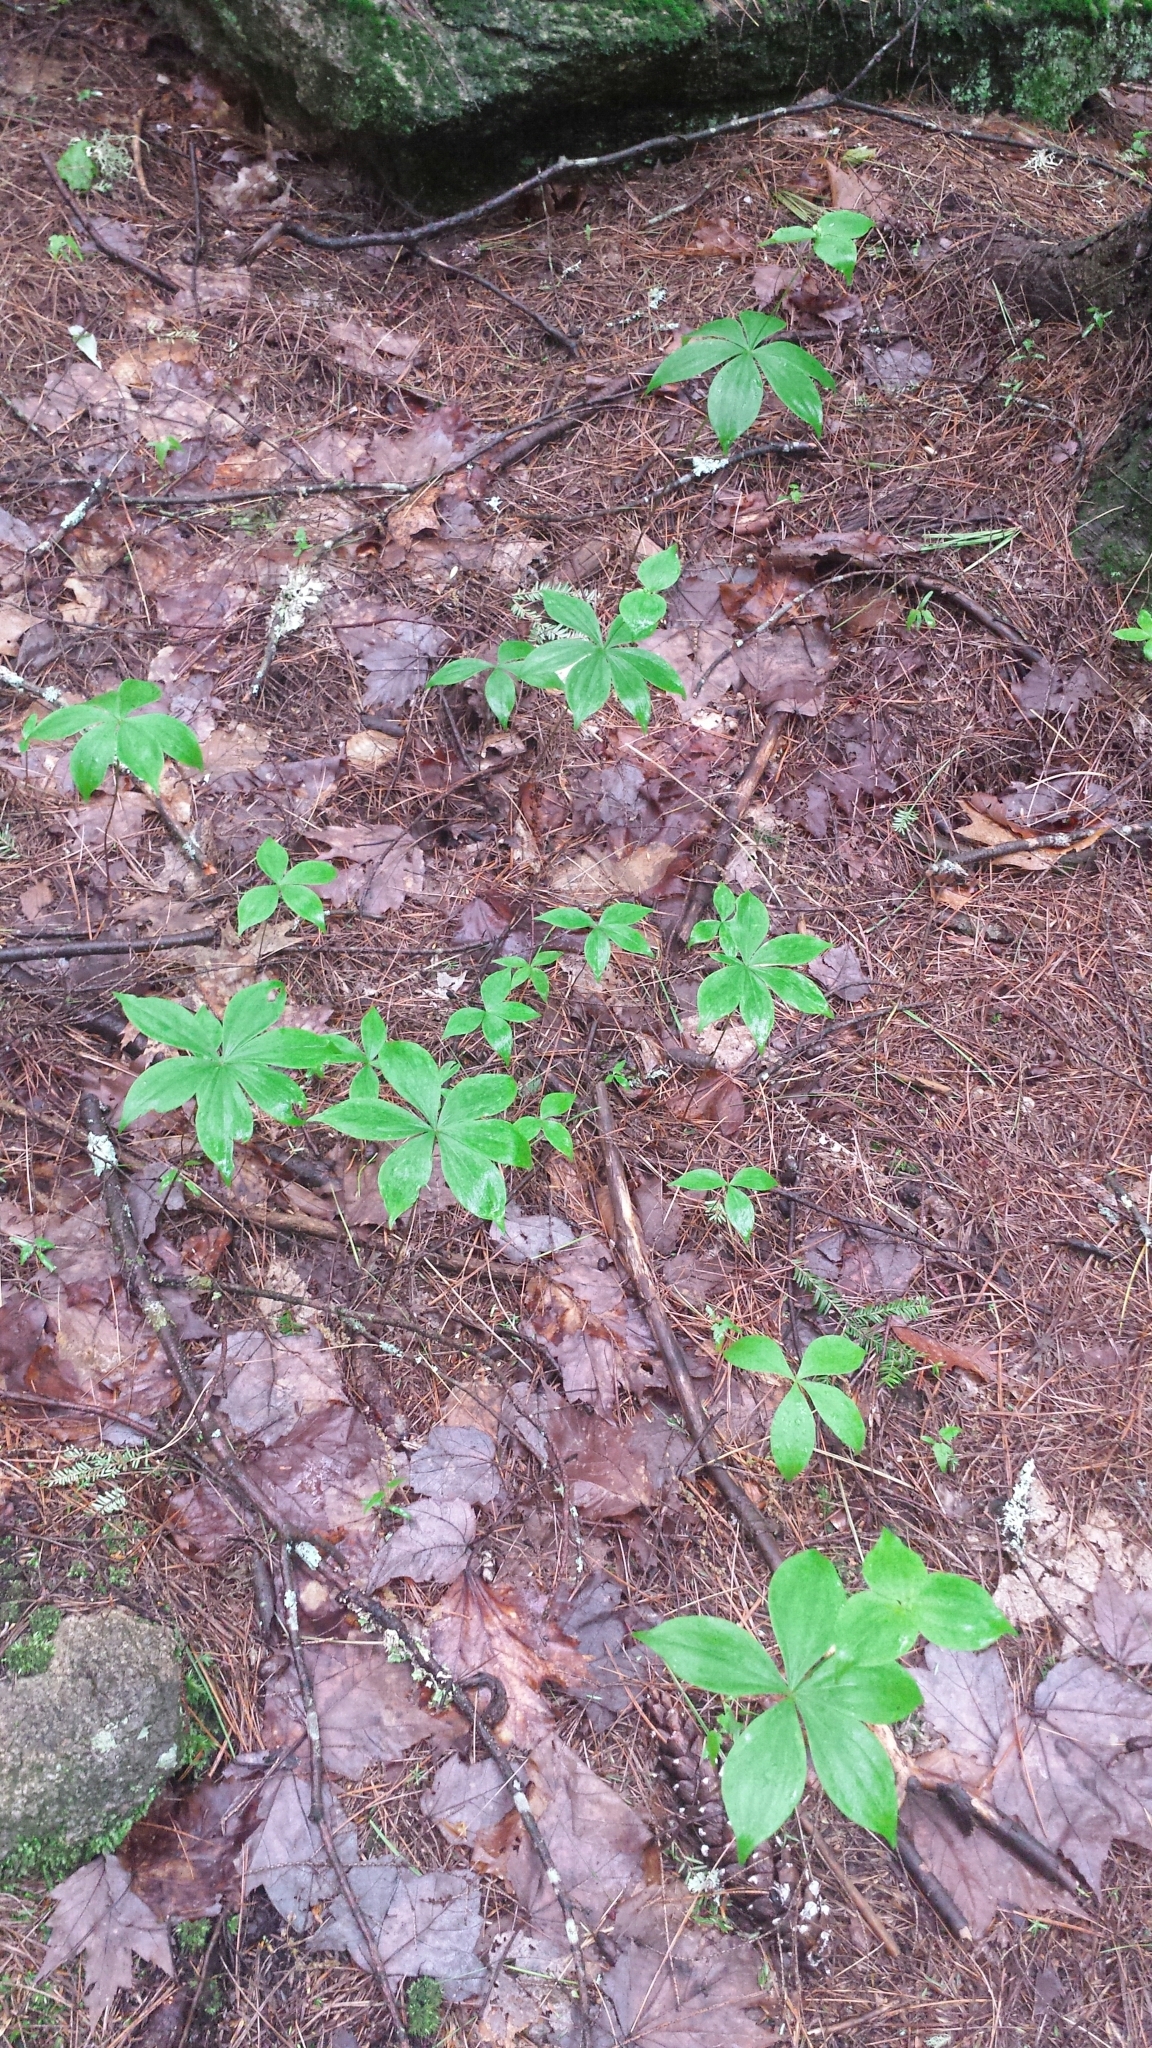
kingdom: Plantae
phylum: Tracheophyta
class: Liliopsida
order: Liliales
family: Liliaceae
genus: Medeola
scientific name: Medeola virginiana
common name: Indian cucumber-root
